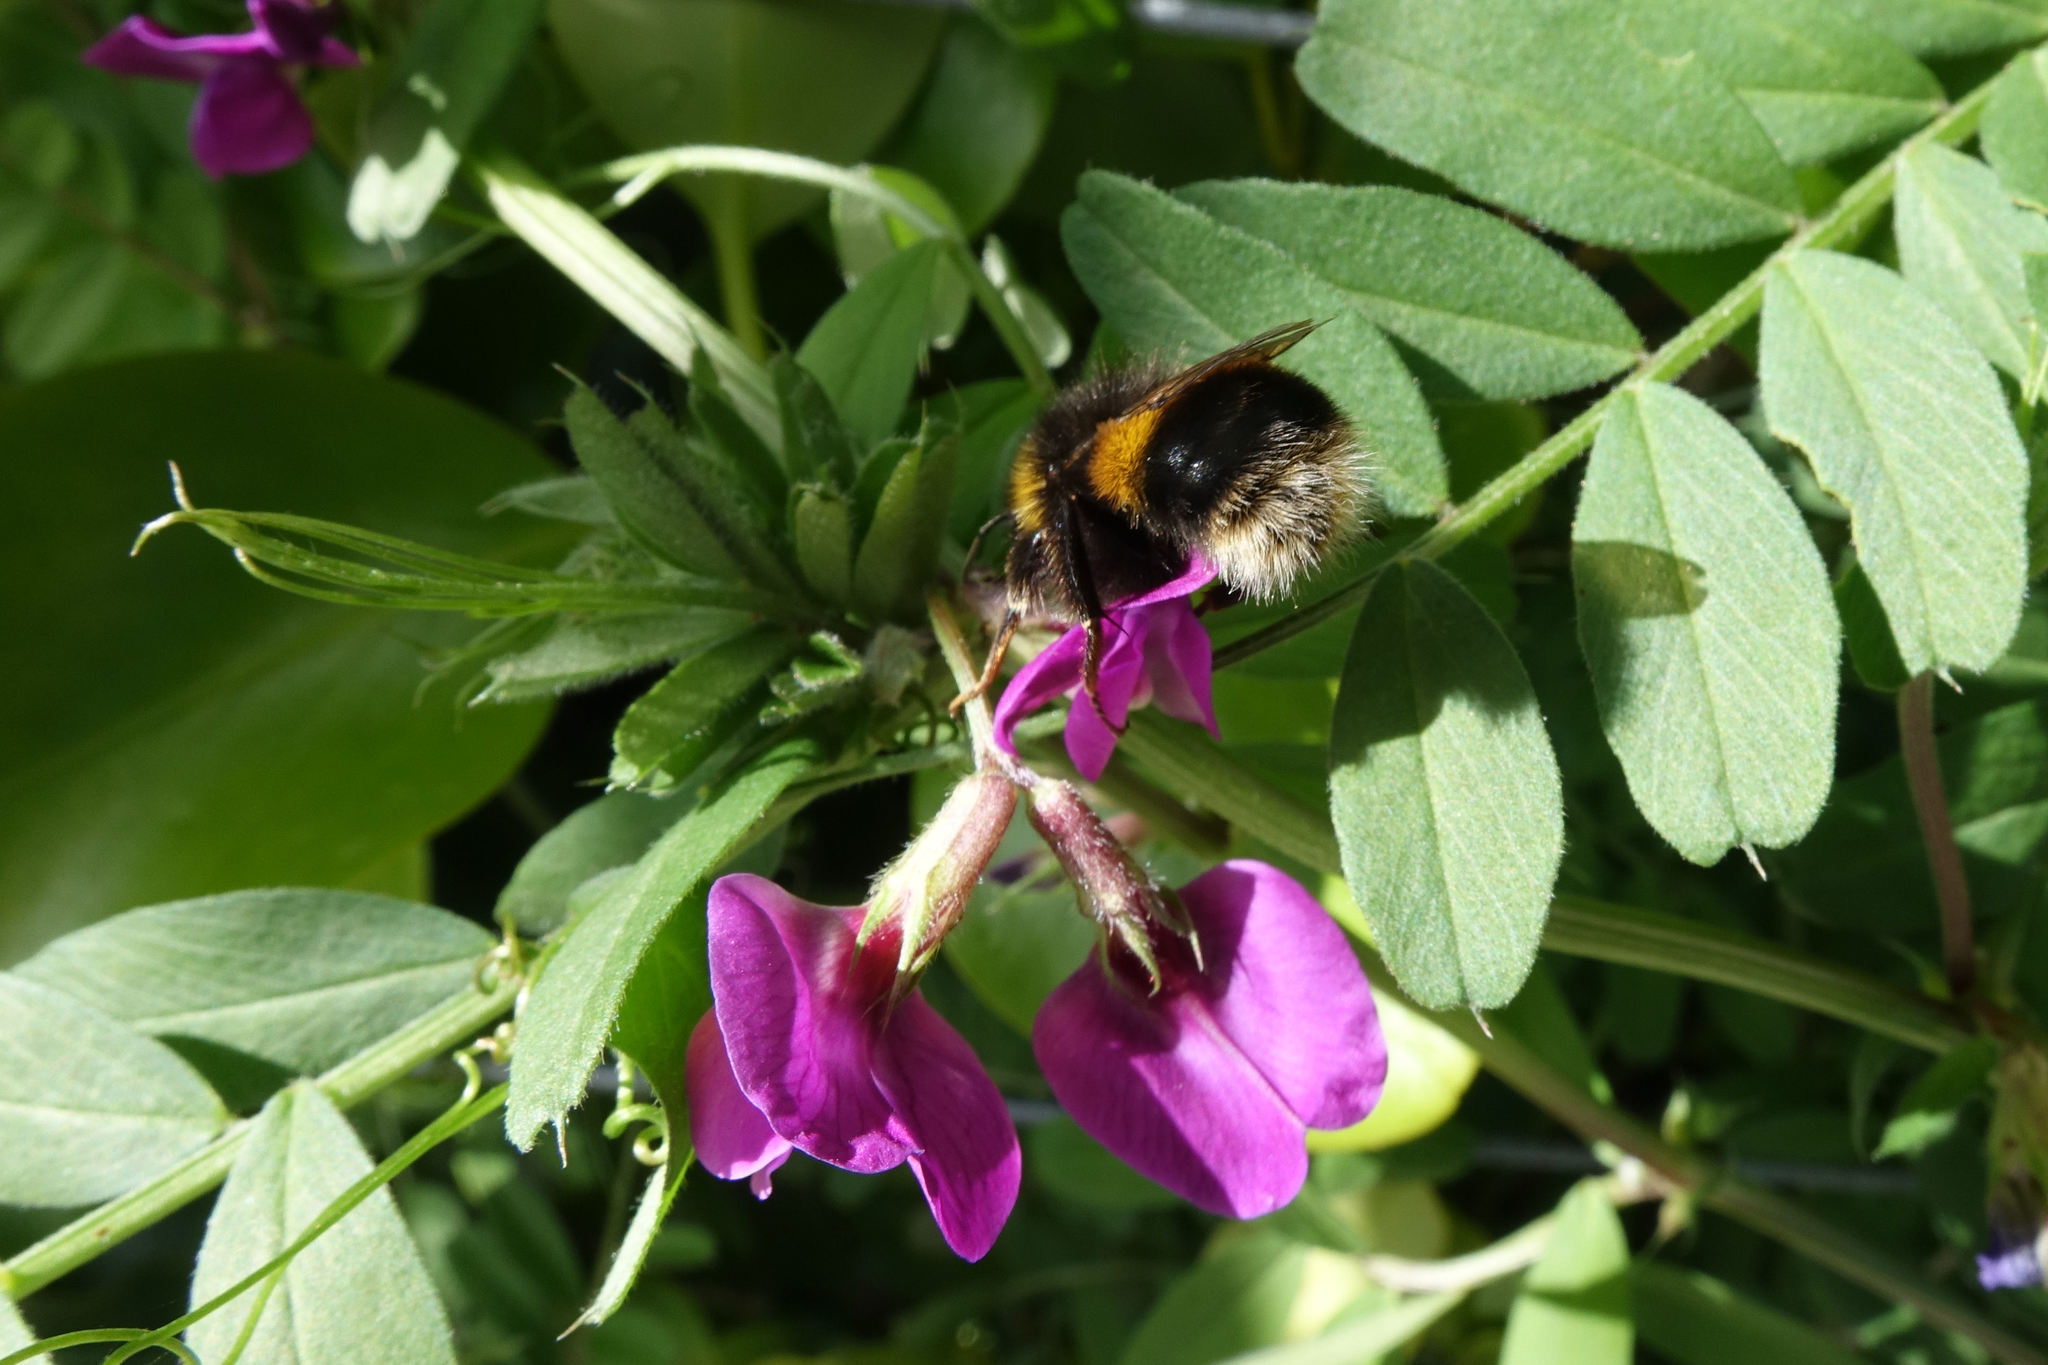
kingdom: Animalia
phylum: Arthropoda
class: Insecta
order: Hymenoptera
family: Apidae
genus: Bombus
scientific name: Bombus terrestris
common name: Buff-tailed bumblebee
